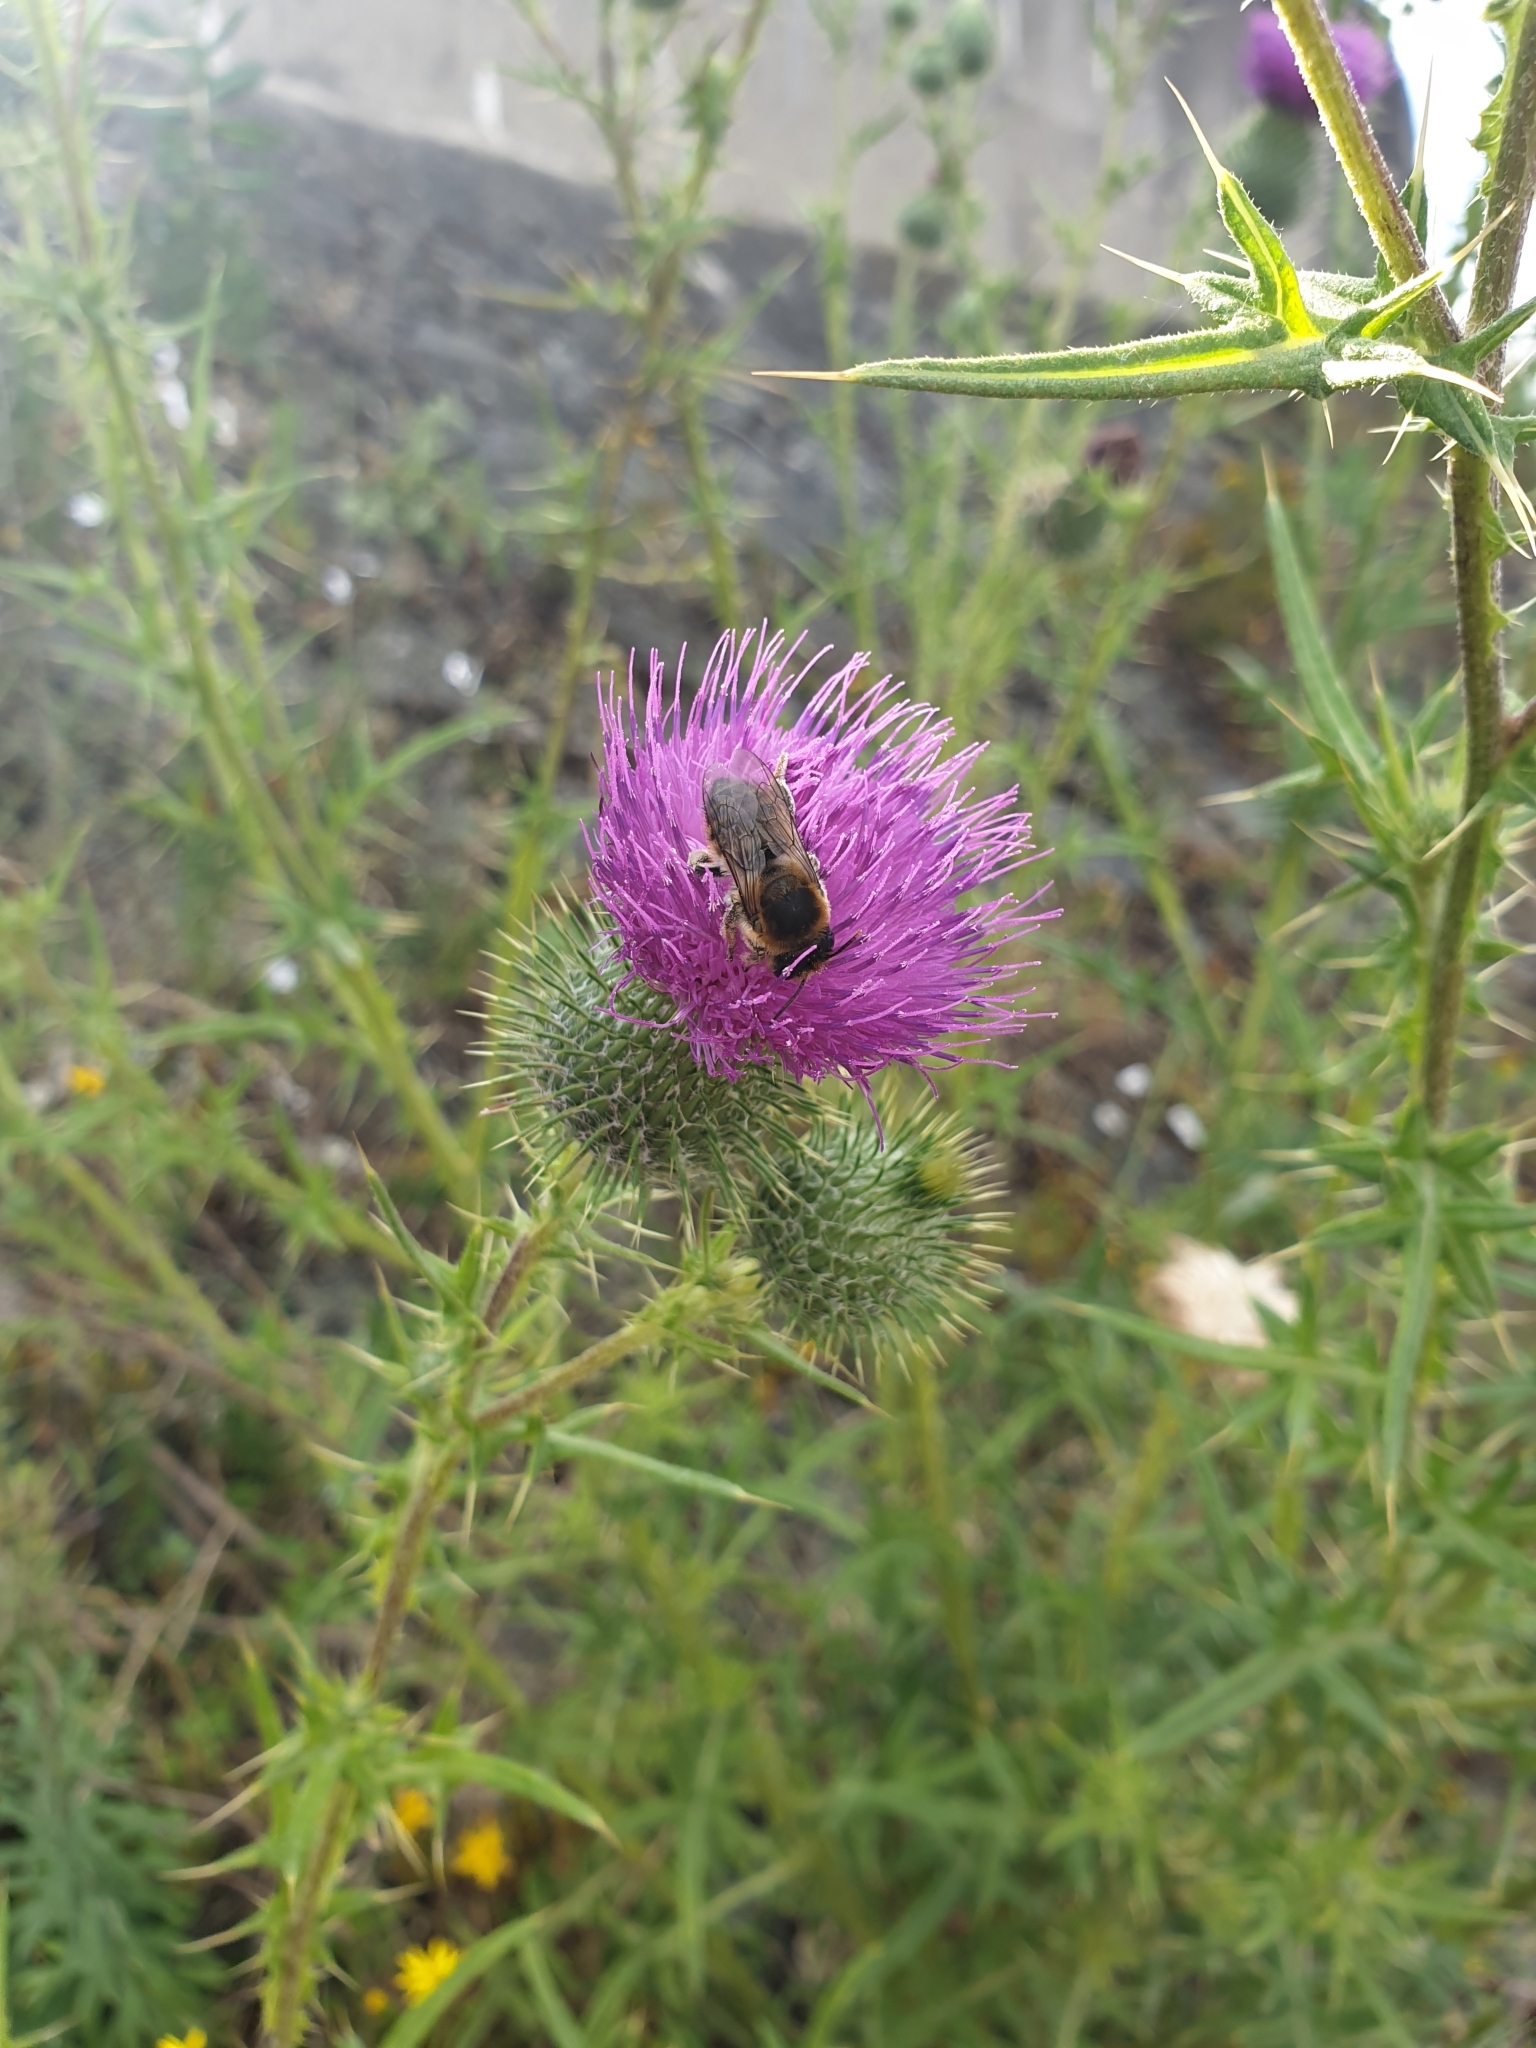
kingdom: Plantae
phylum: Tracheophyta
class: Magnoliopsida
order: Asterales
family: Asteraceae
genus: Cirsium
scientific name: Cirsium vulgare
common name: Bull thistle
